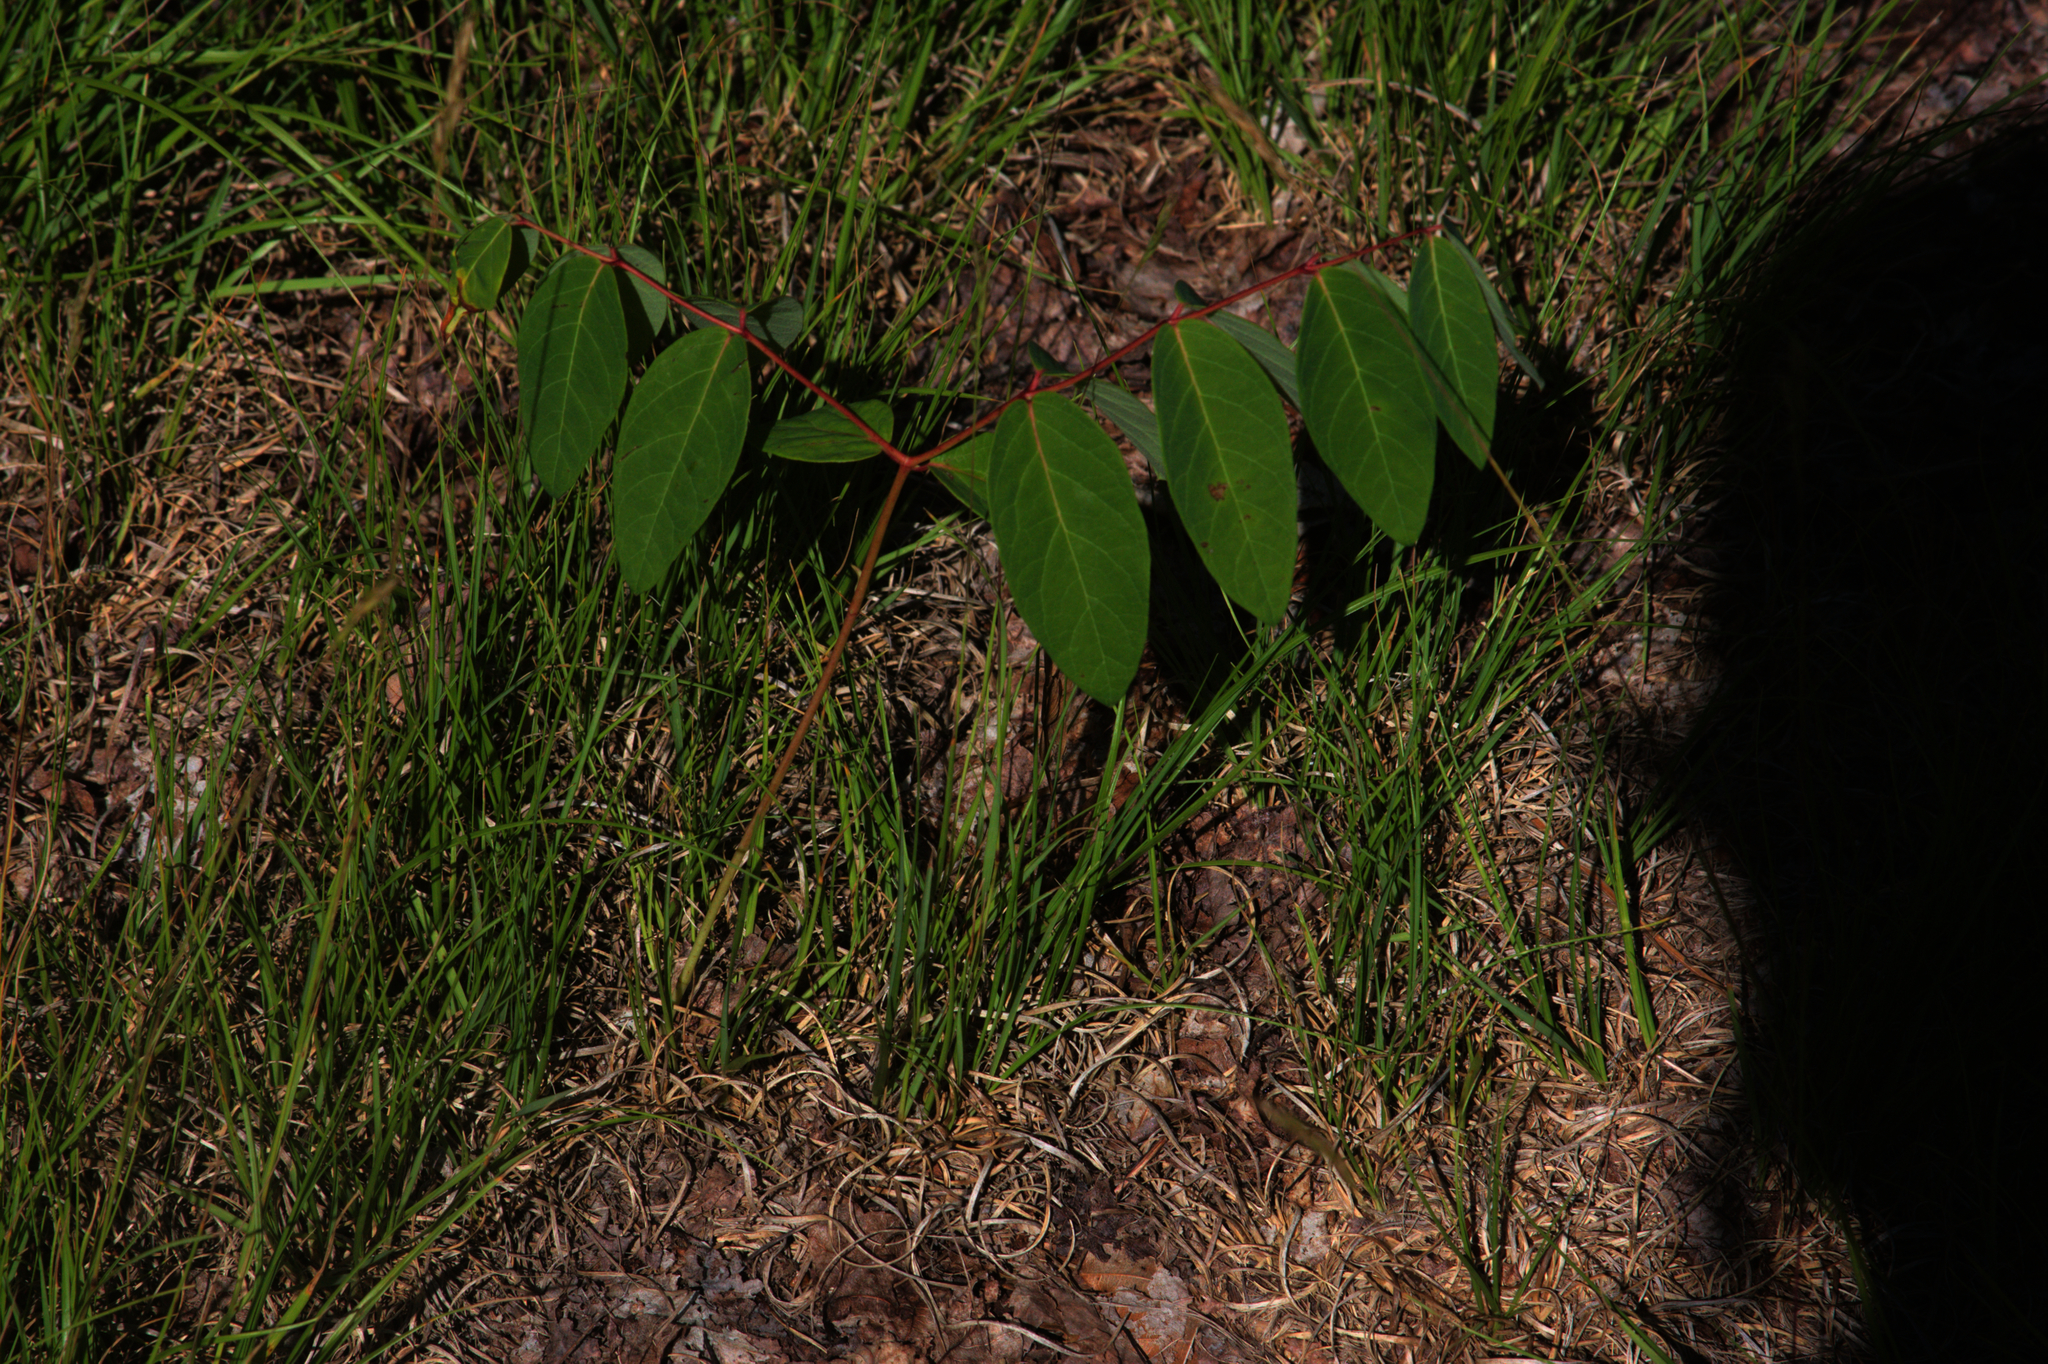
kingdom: Plantae
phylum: Tracheophyta
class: Magnoliopsida
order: Gentianales
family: Apocynaceae
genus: Apocynum
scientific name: Apocynum androsaemifolium
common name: Spreading dogbane
